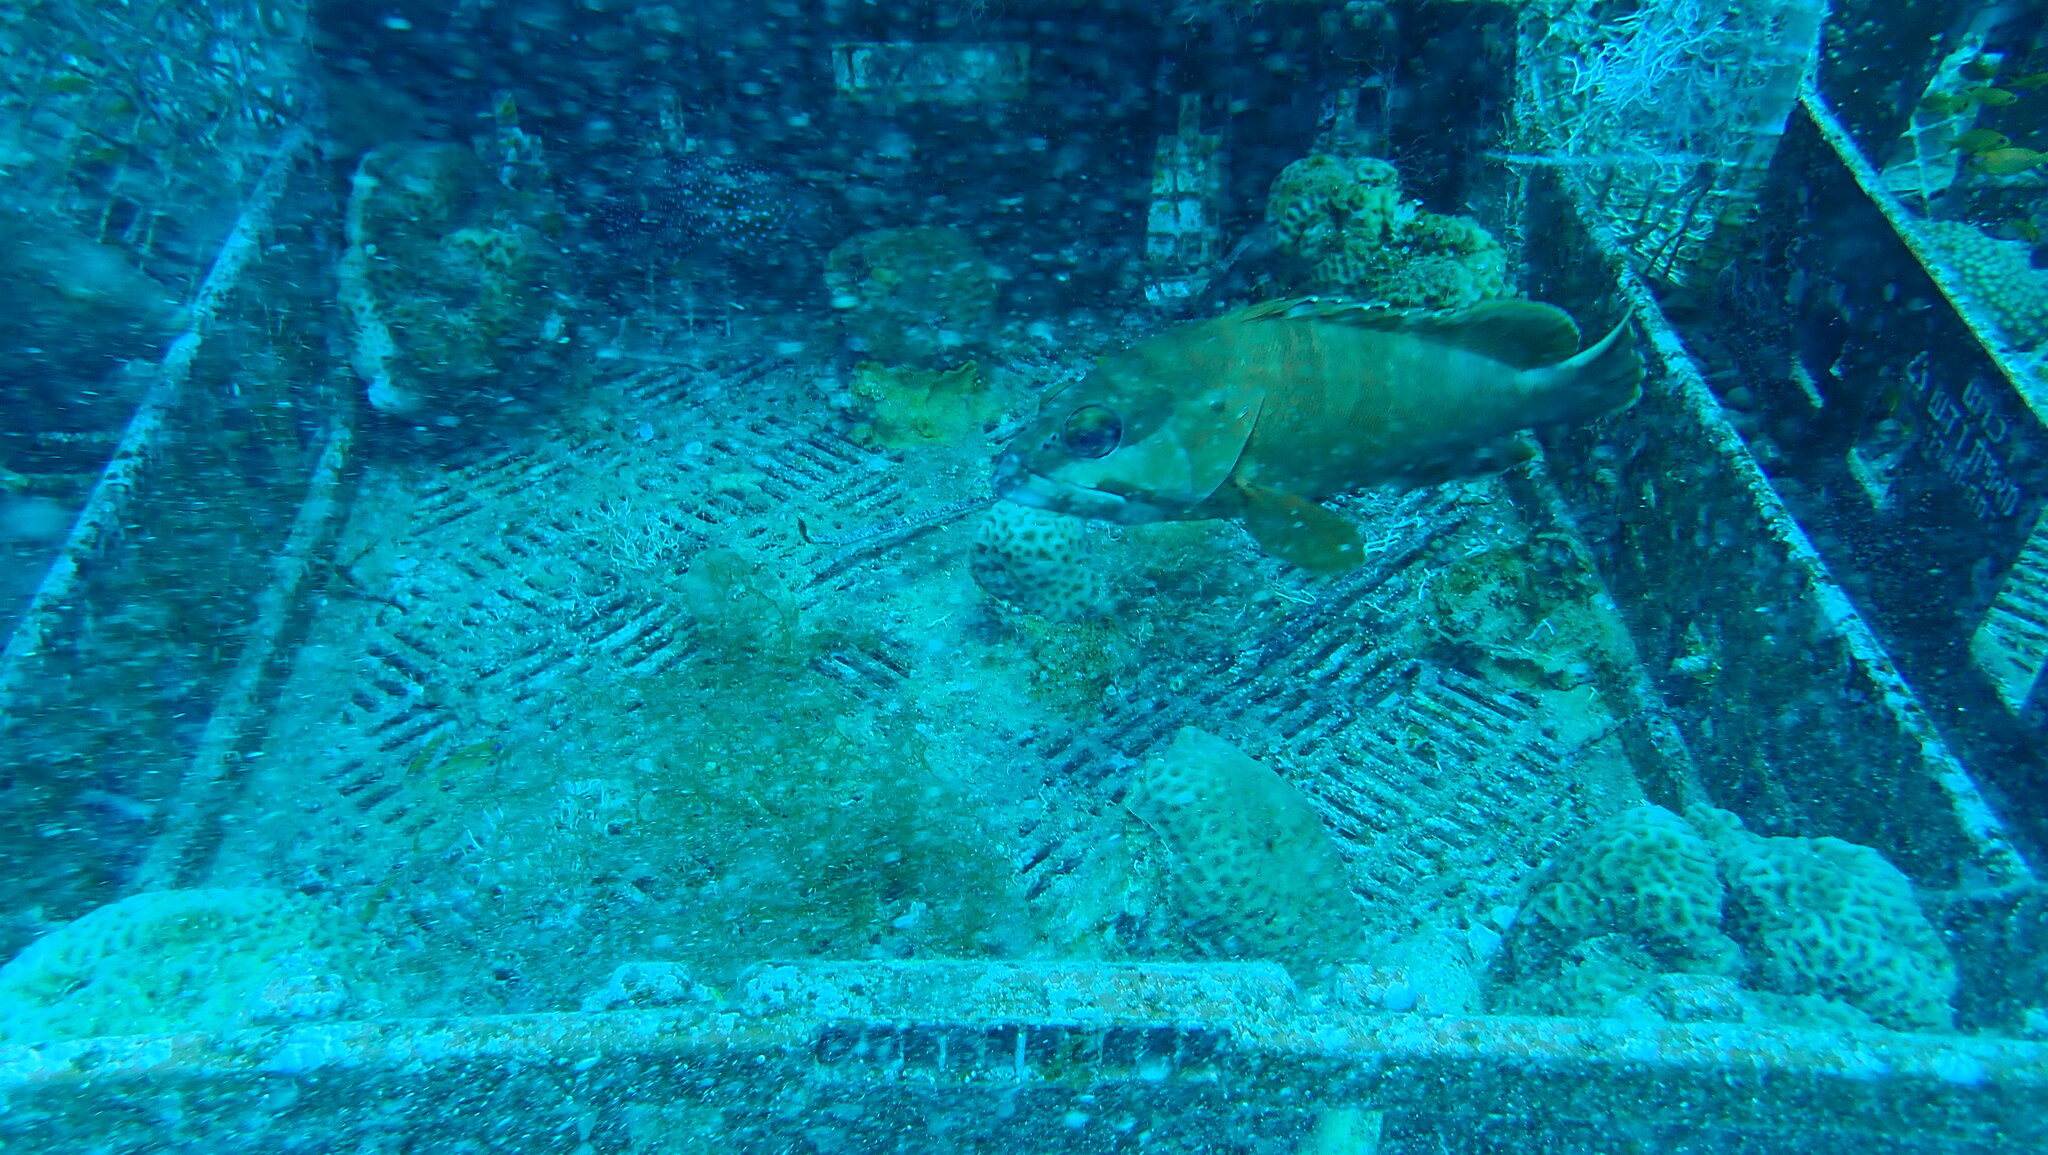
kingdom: Animalia
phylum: Chordata
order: Perciformes
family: Serranidae
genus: Epinephelus
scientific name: Epinephelus fasciatus
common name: Blacktip grouper
